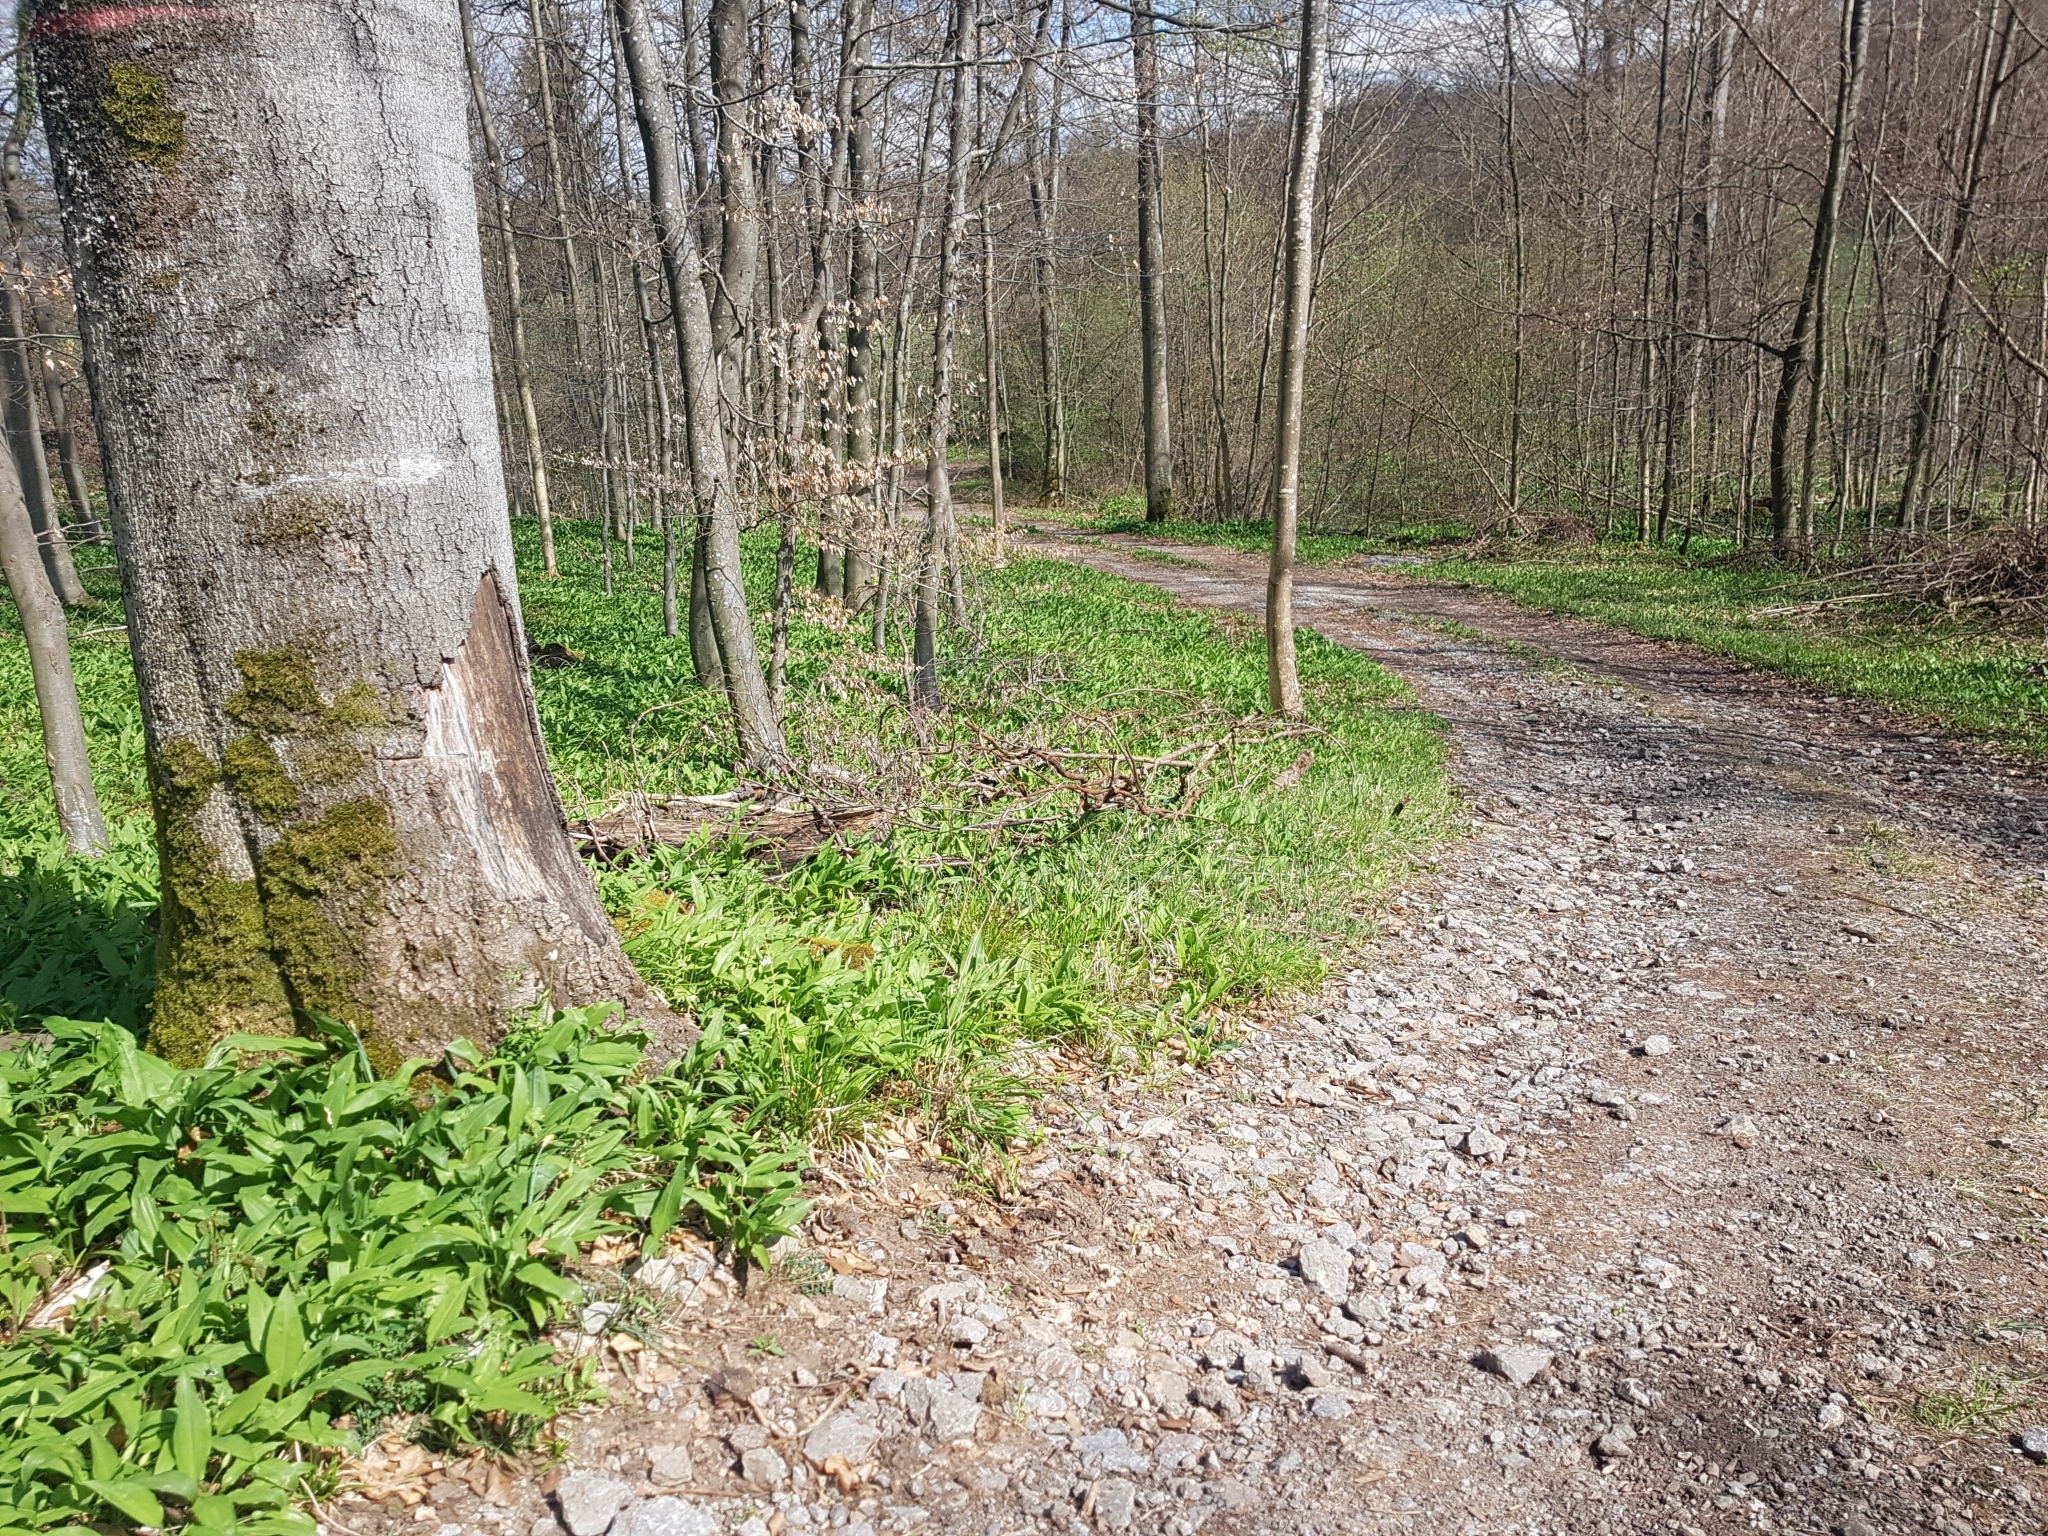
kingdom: Plantae
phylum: Tracheophyta
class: Liliopsida
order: Asparagales
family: Amaryllidaceae
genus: Allium
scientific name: Allium ursinum
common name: Ramsons
